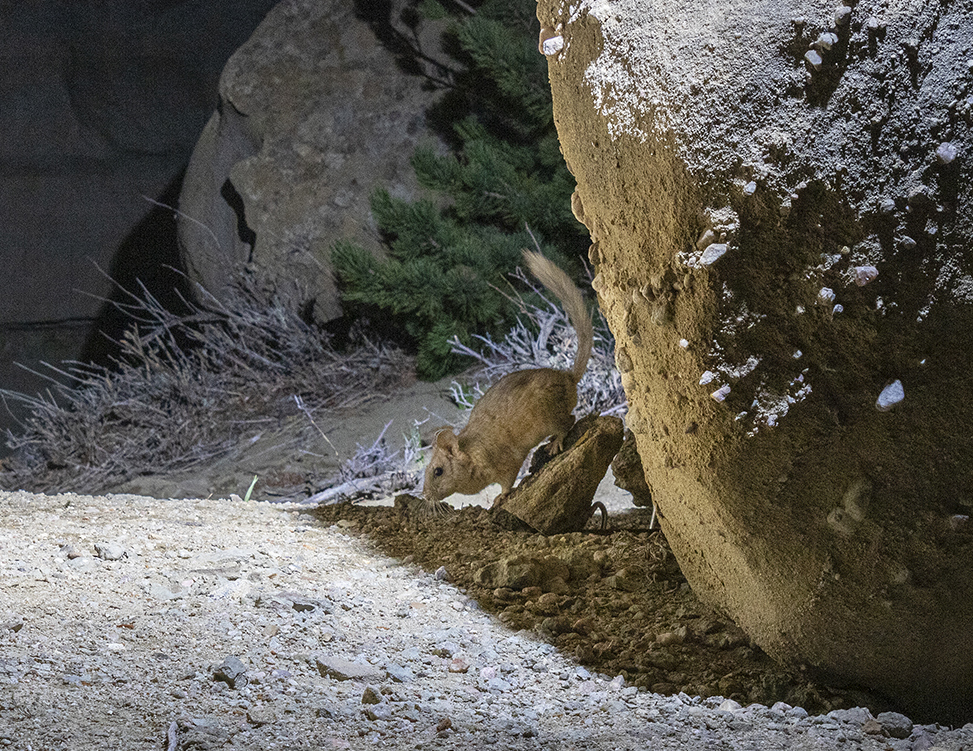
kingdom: Animalia
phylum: Chordata
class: Mammalia
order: Rodentia
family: Cricetidae
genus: Neotoma
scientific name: Neotoma cinerea
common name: Bushy-tailed woodrat
